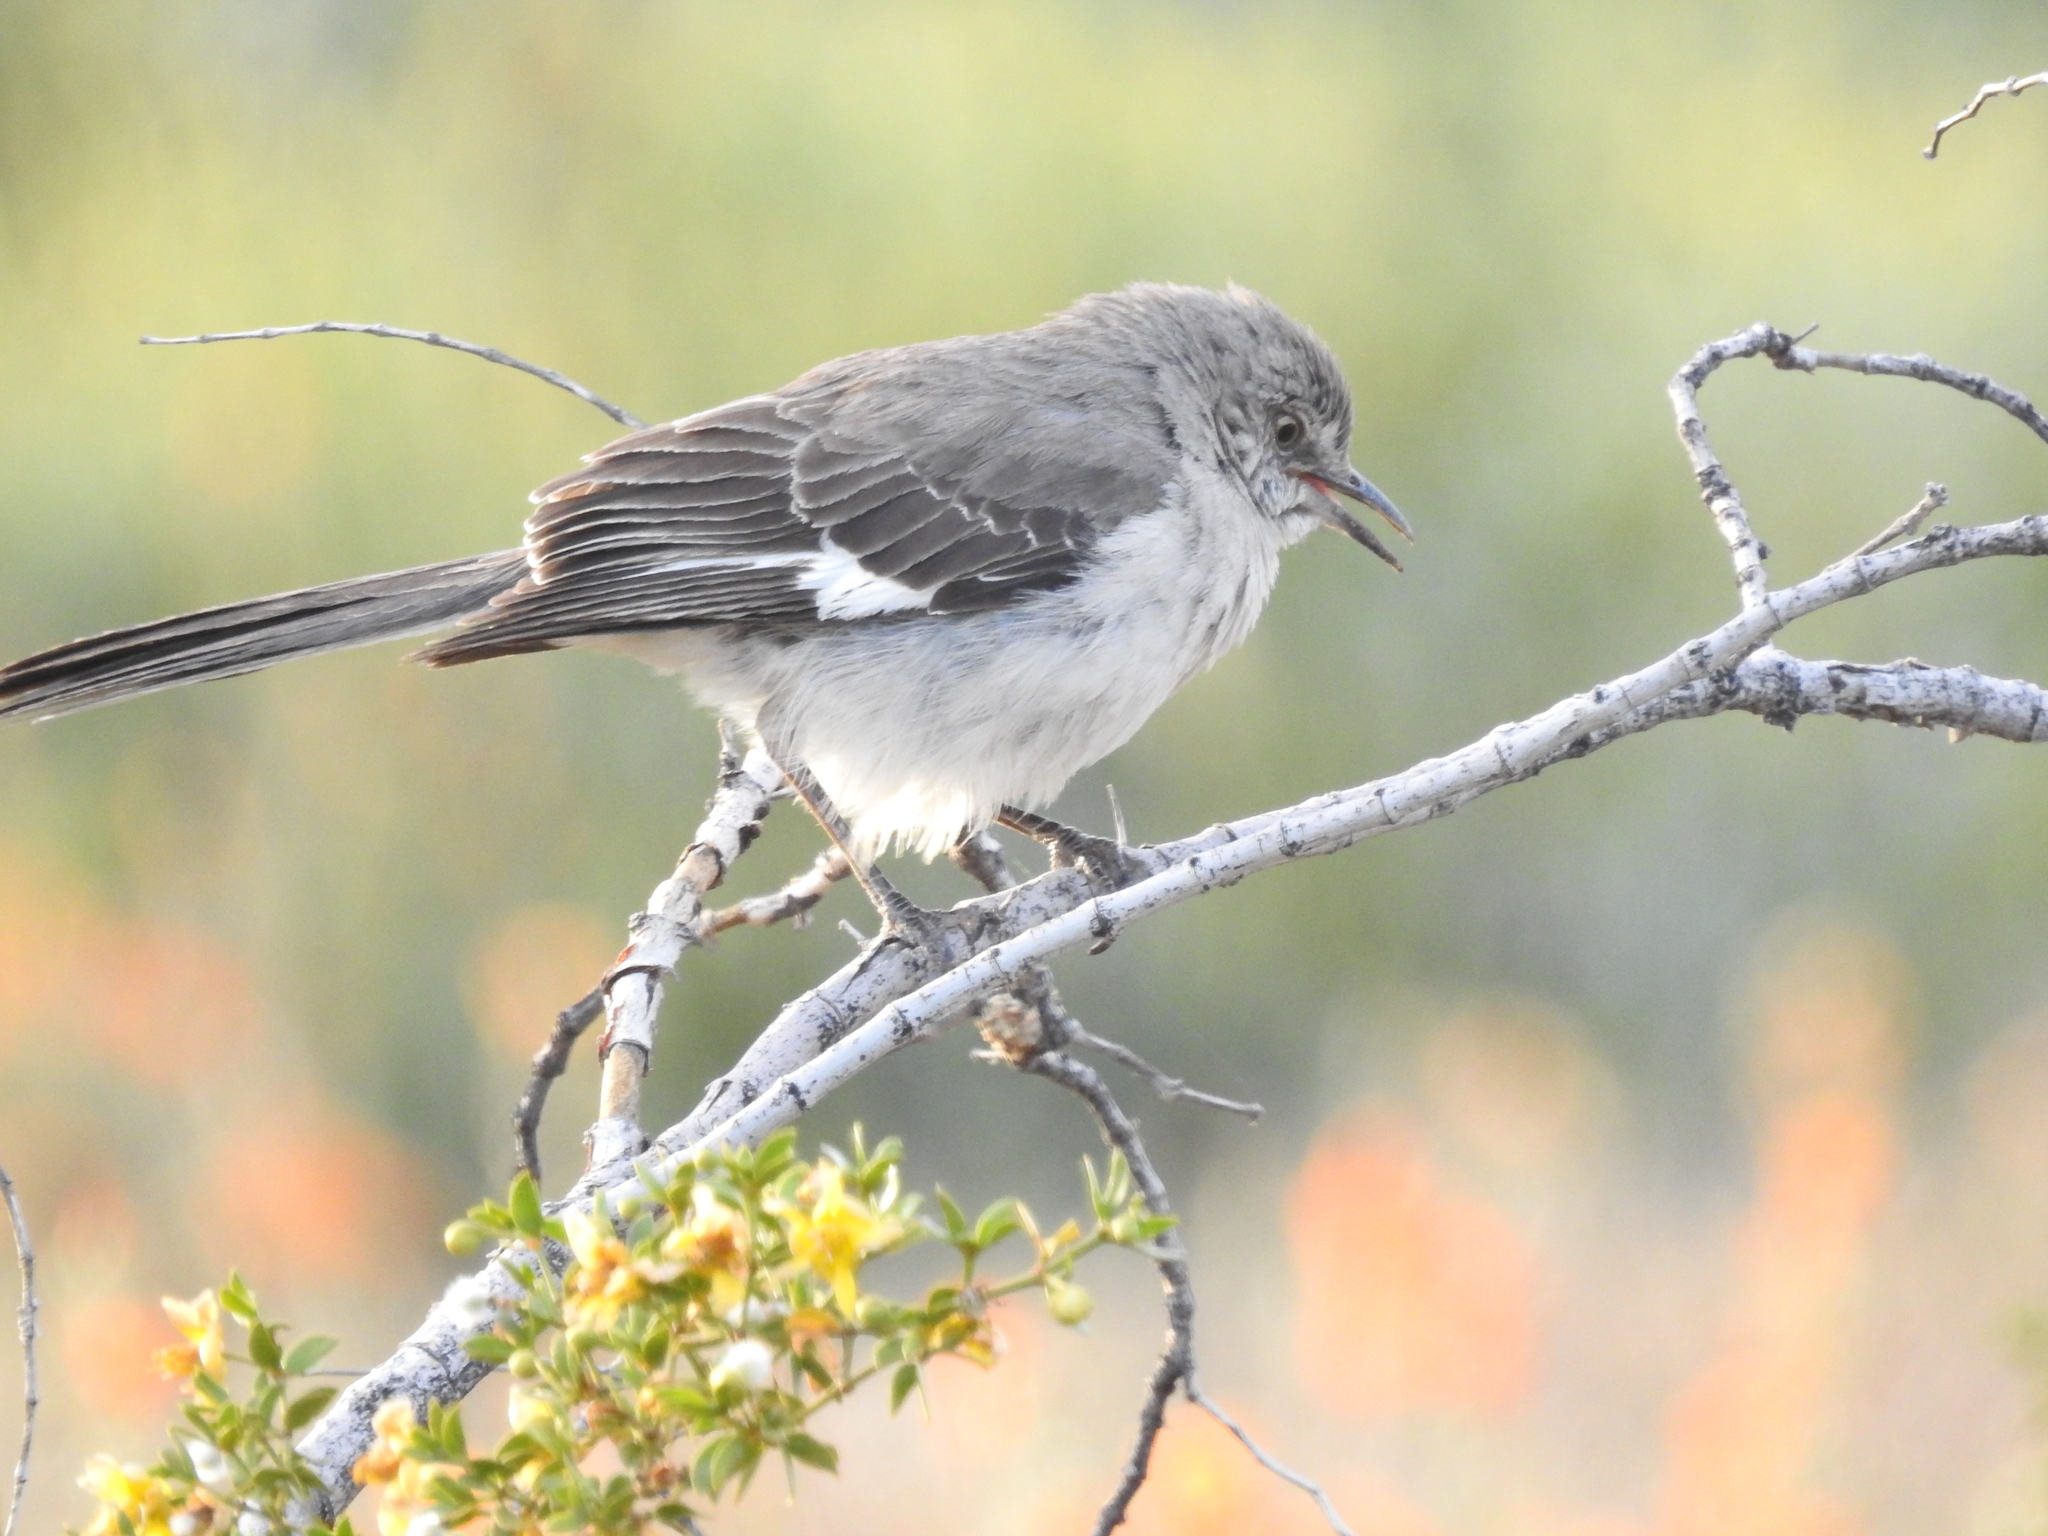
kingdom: Animalia
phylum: Chordata
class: Aves
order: Passeriformes
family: Mimidae
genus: Mimus
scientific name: Mimus polyglottos
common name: Northern mockingbird
